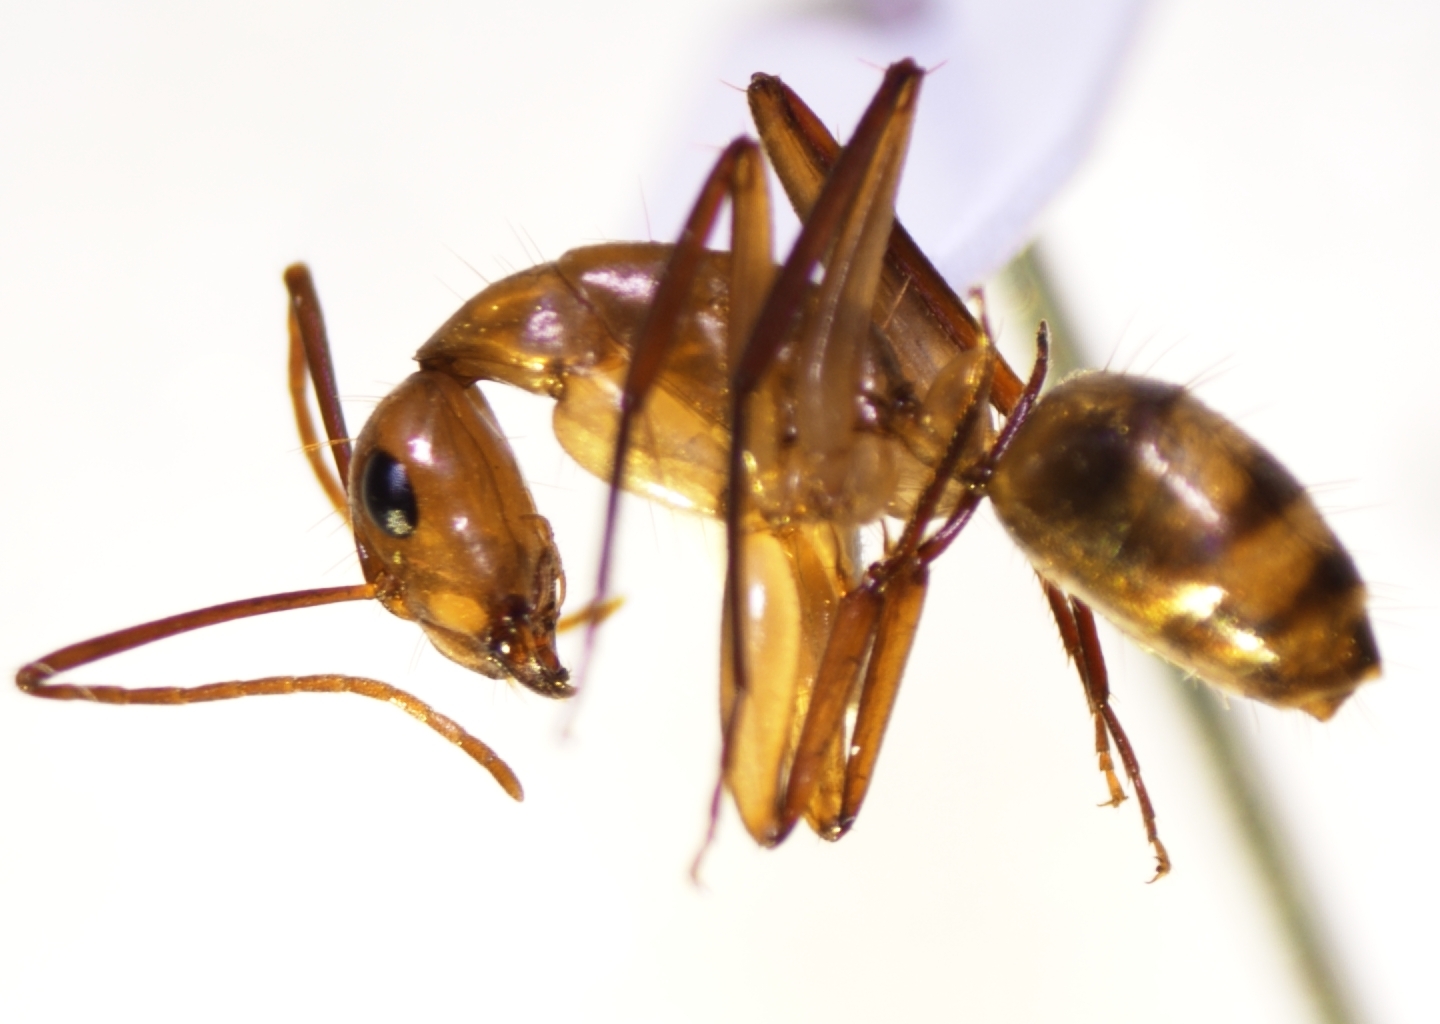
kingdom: Animalia
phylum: Arthropoda
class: Insecta
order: Hymenoptera
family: Formicidae
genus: Camponotus
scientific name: Camponotus chloroticus
